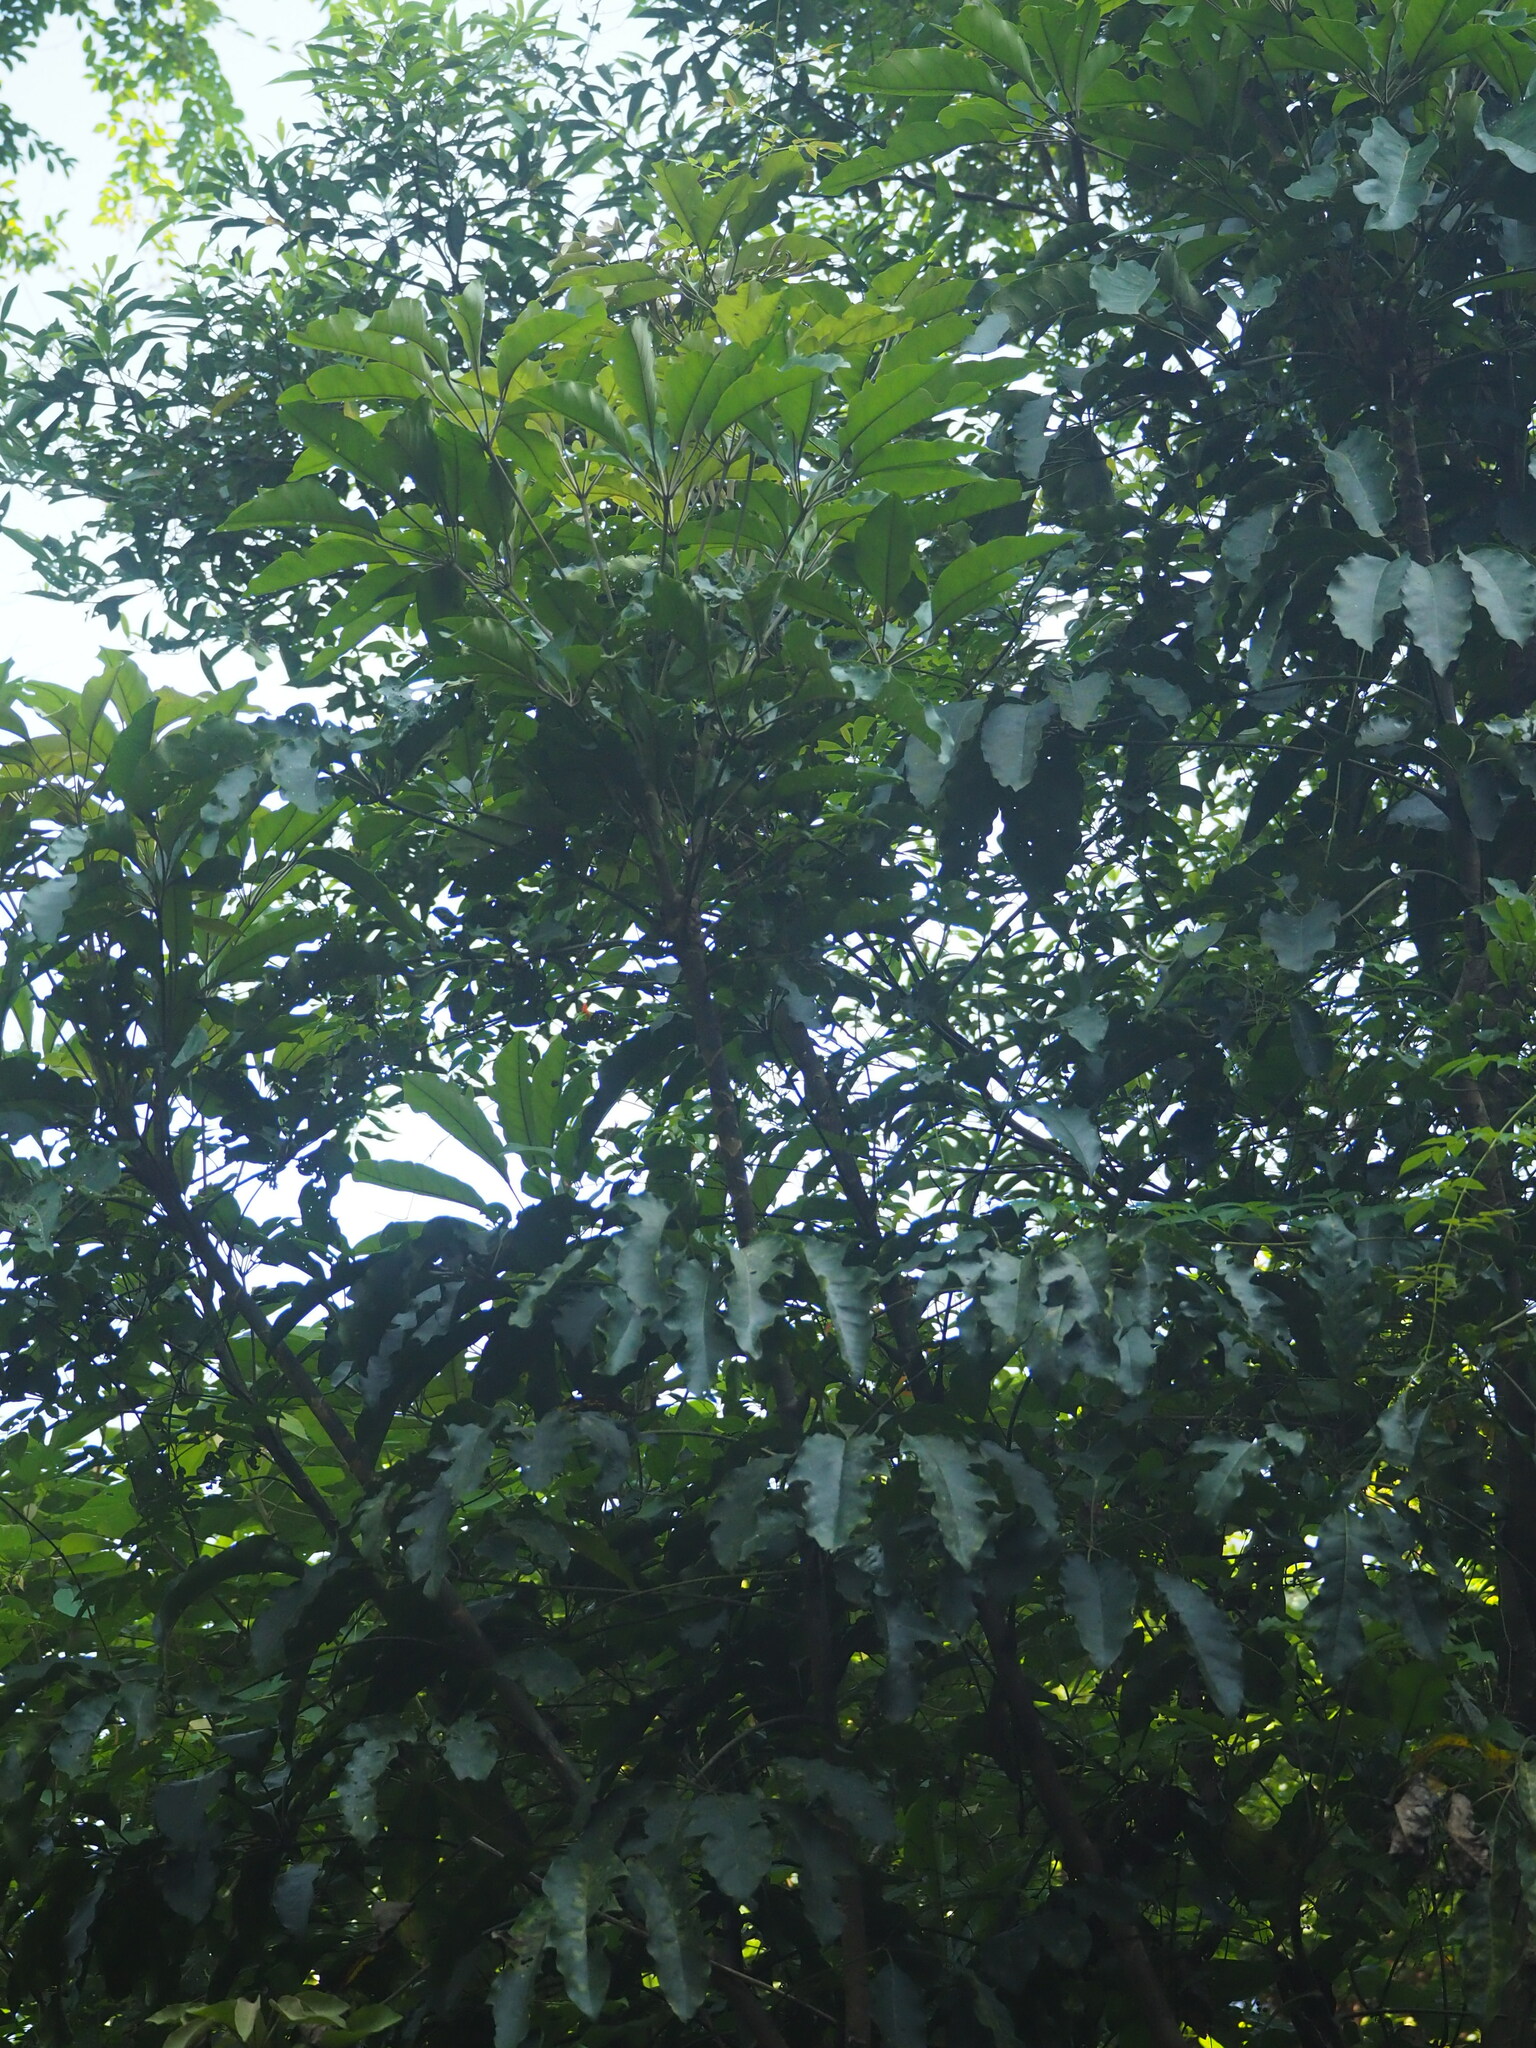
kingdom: Plantae
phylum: Tracheophyta
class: Magnoliopsida
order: Apiales
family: Araliaceae
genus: Heptapleurum
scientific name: Heptapleurum heptaphyllum
